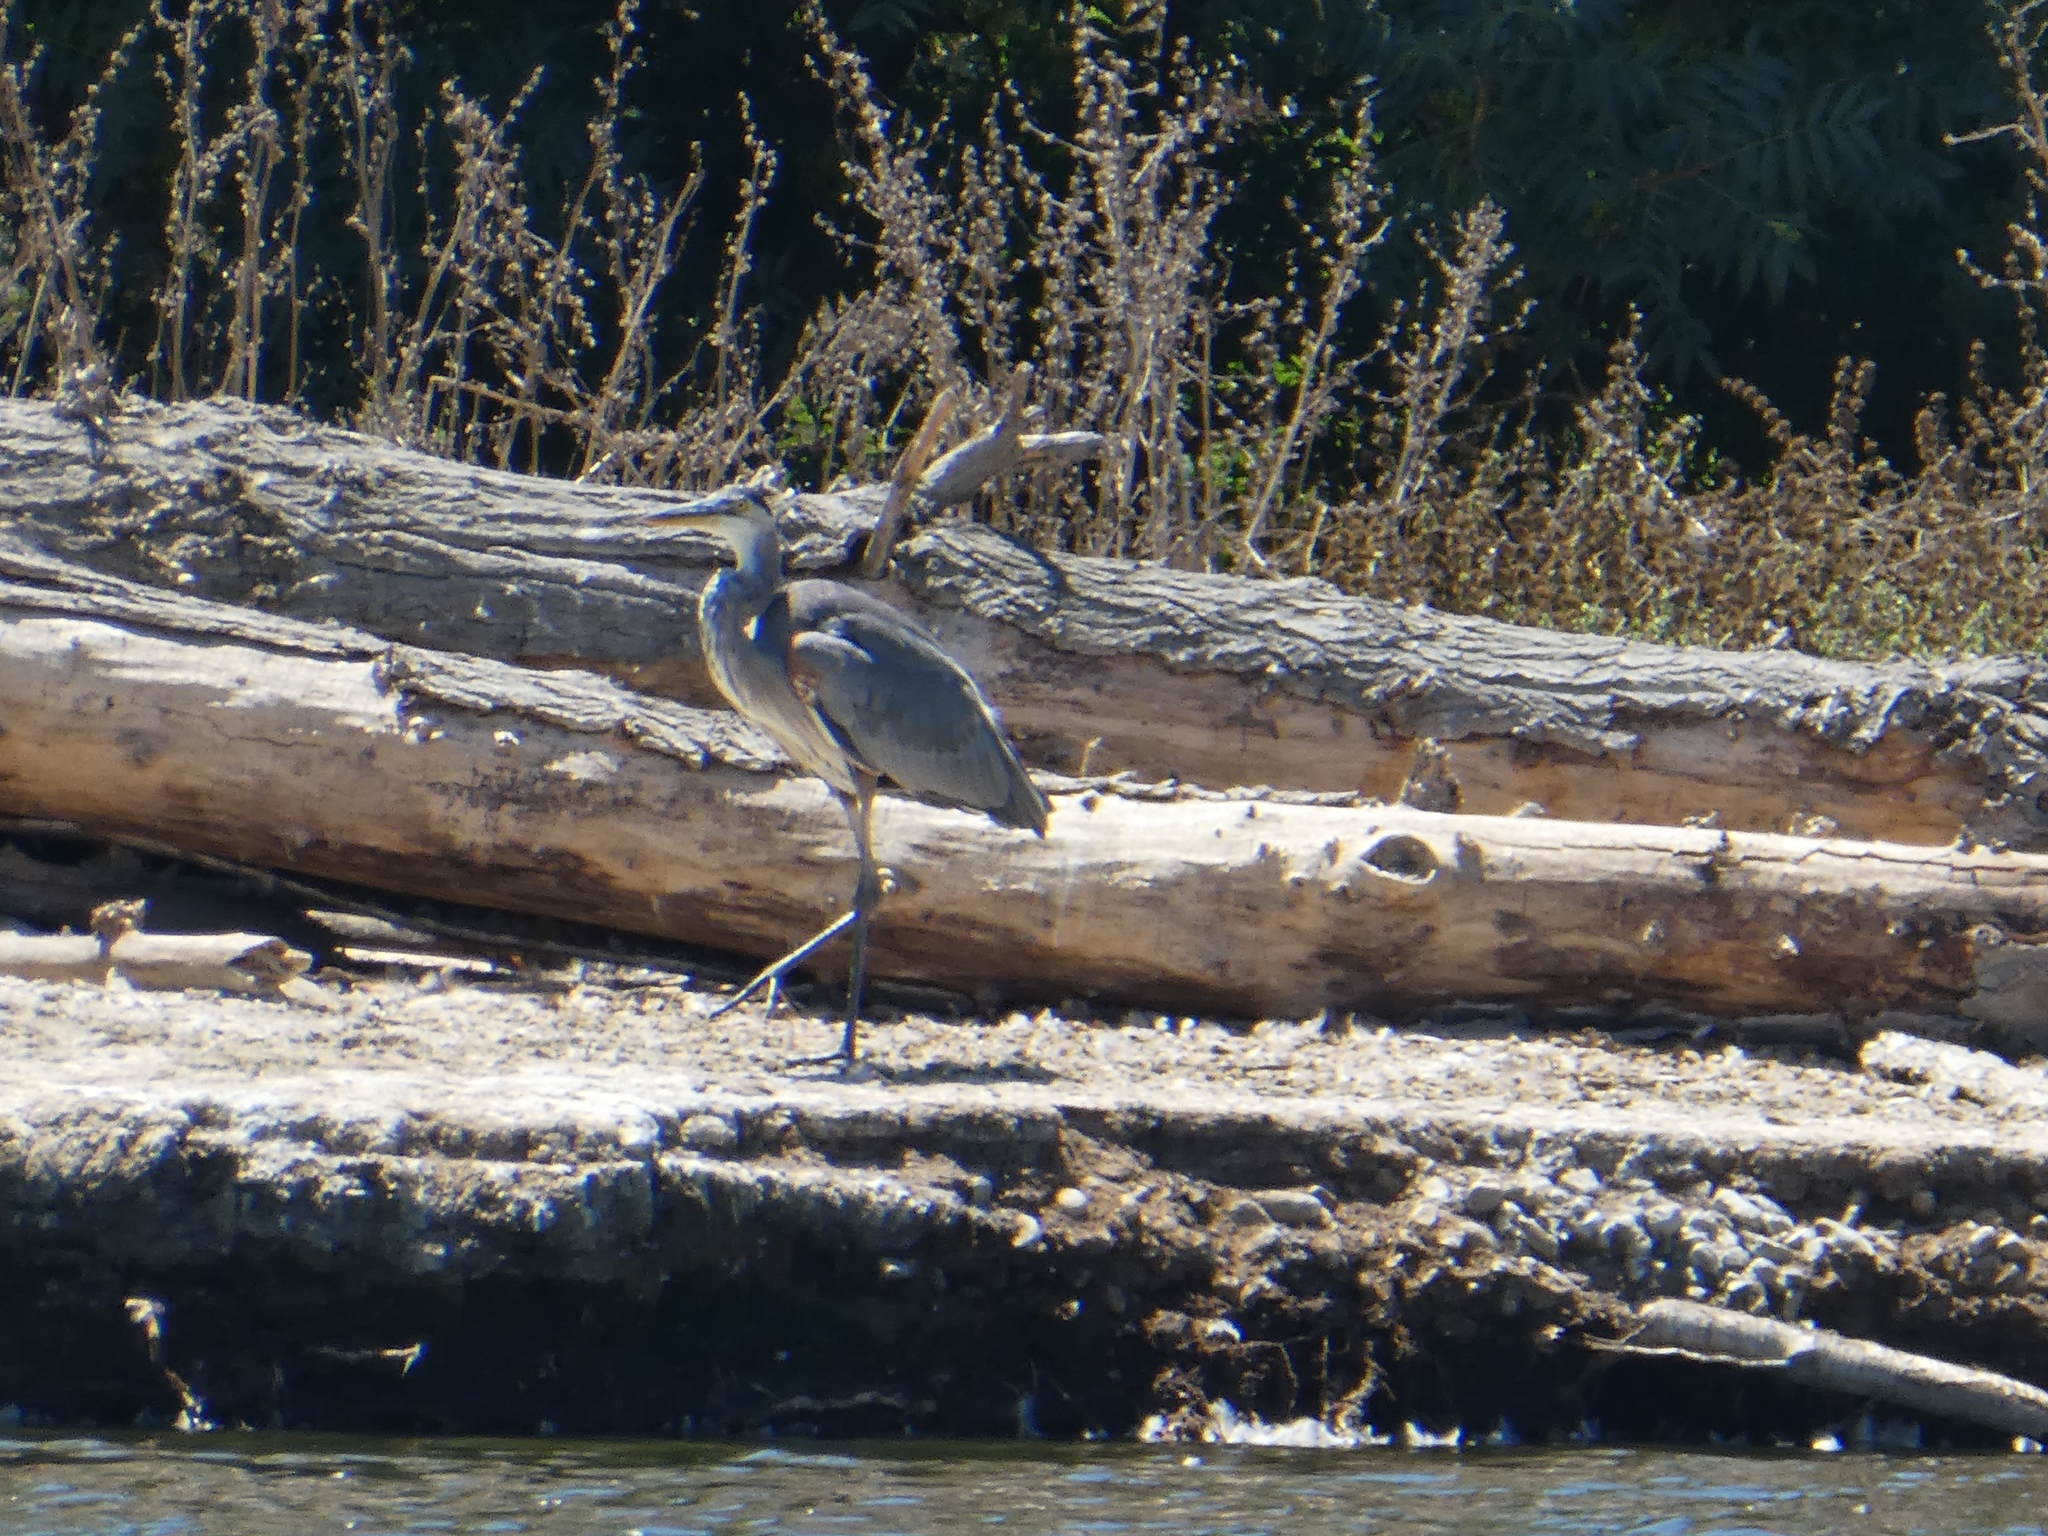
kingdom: Animalia
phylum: Chordata
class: Aves
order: Pelecaniformes
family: Ardeidae
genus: Ardea
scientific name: Ardea herodias
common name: Great blue heron
